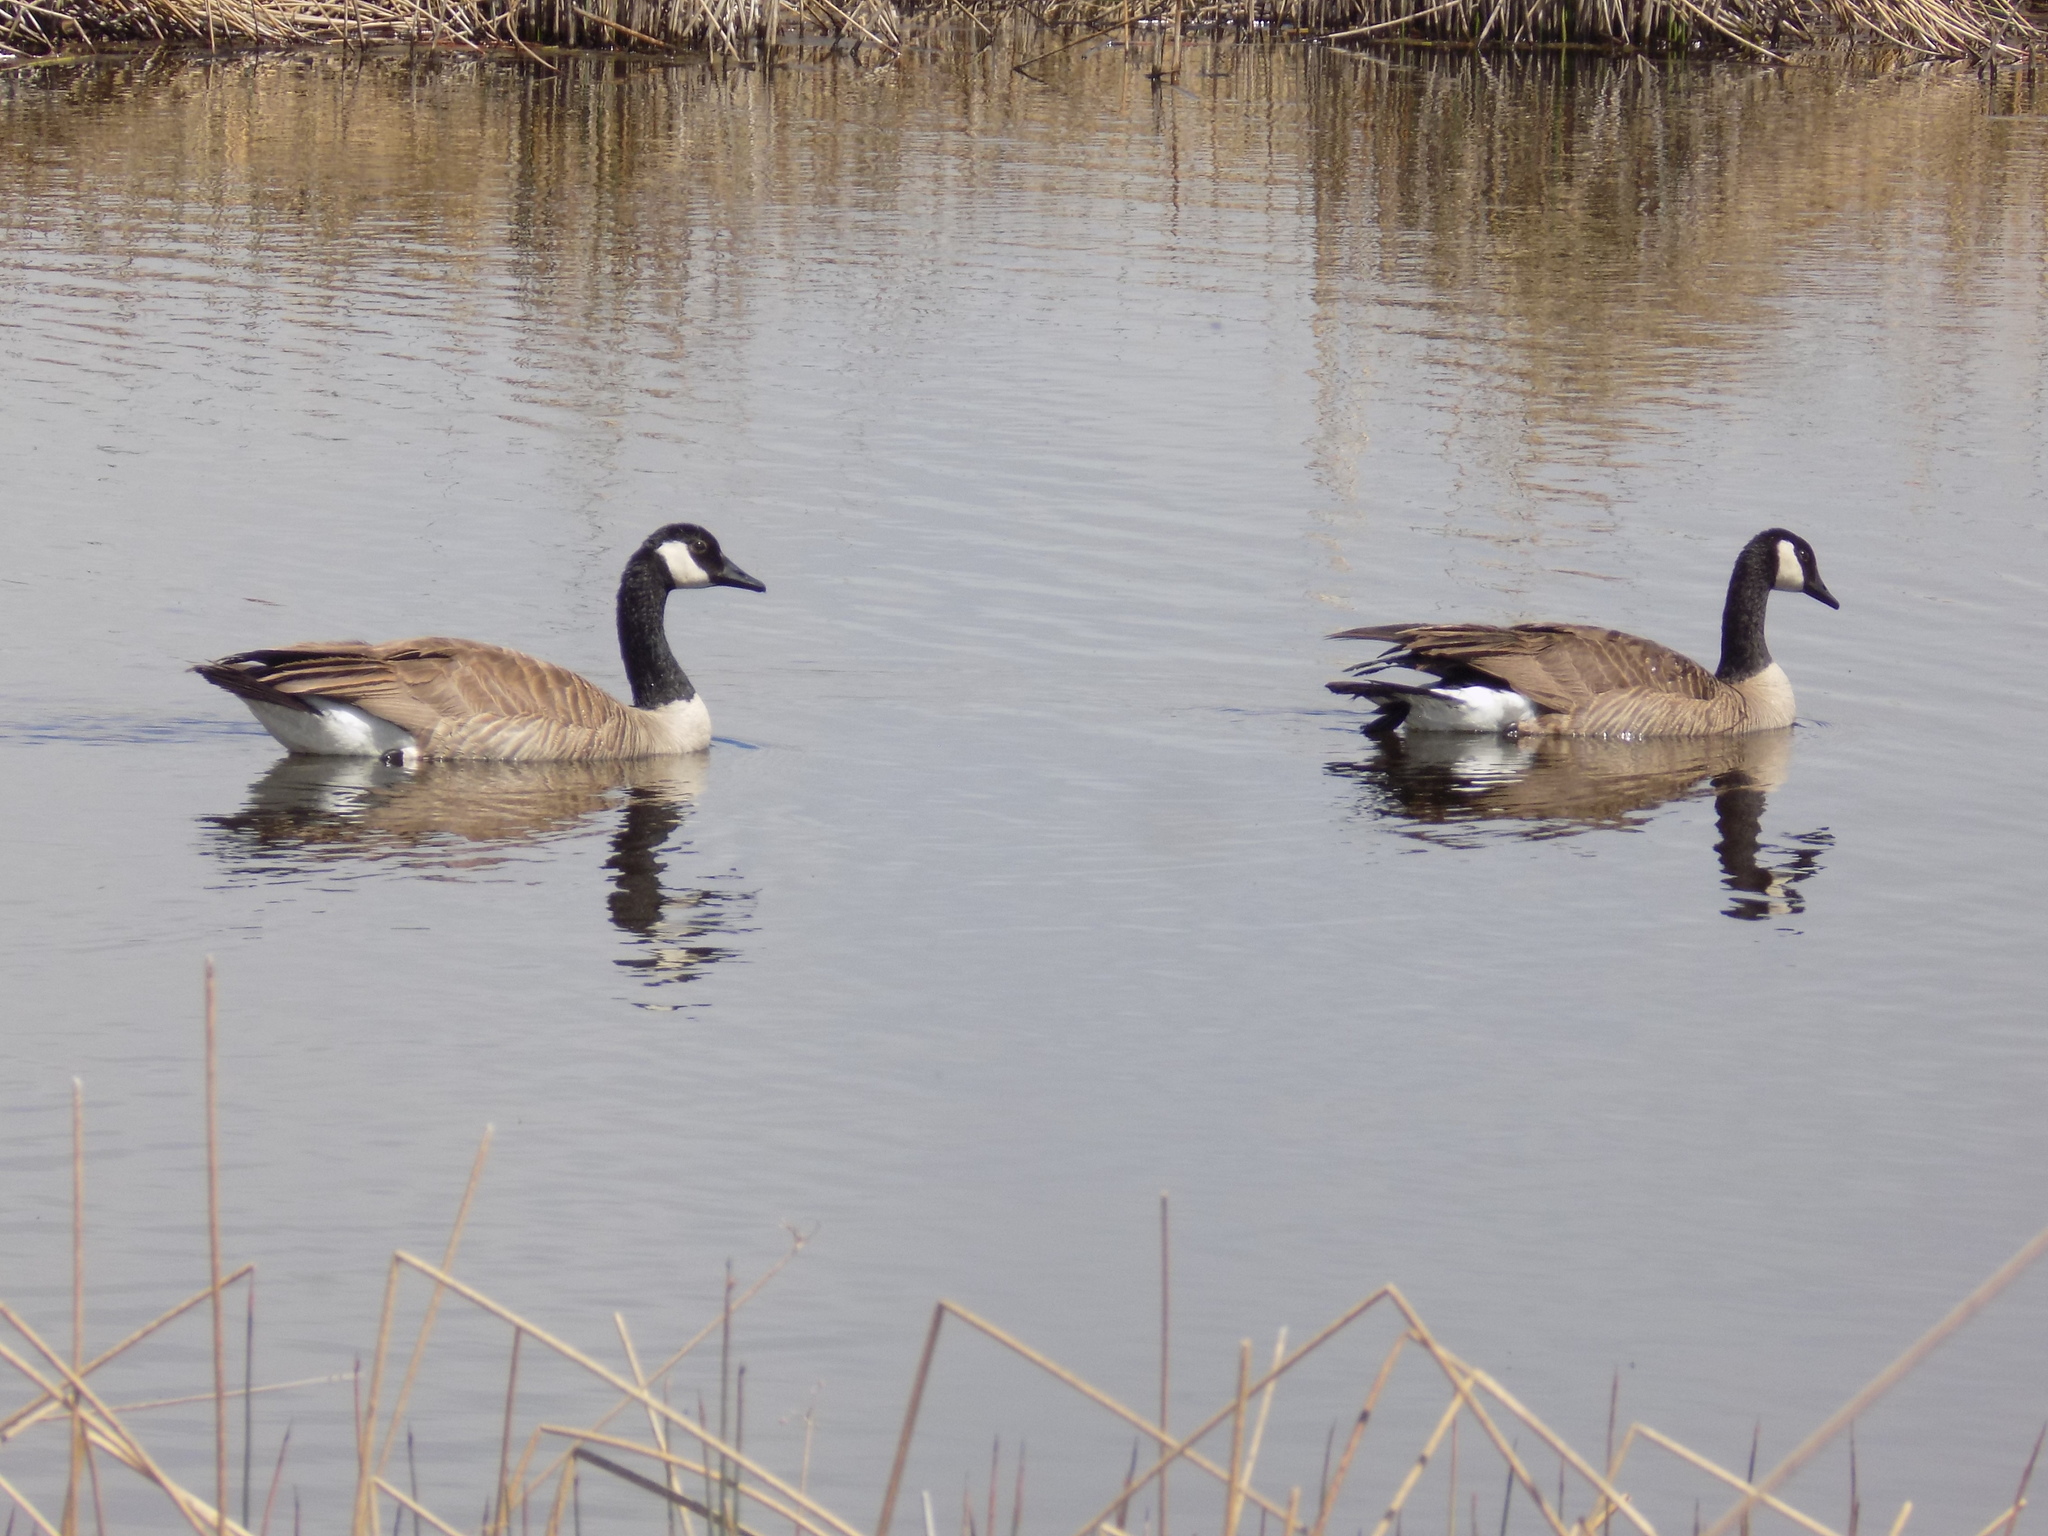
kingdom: Animalia
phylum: Chordata
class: Aves
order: Anseriformes
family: Anatidae
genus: Branta
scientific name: Branta canadensis
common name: Canada goose
